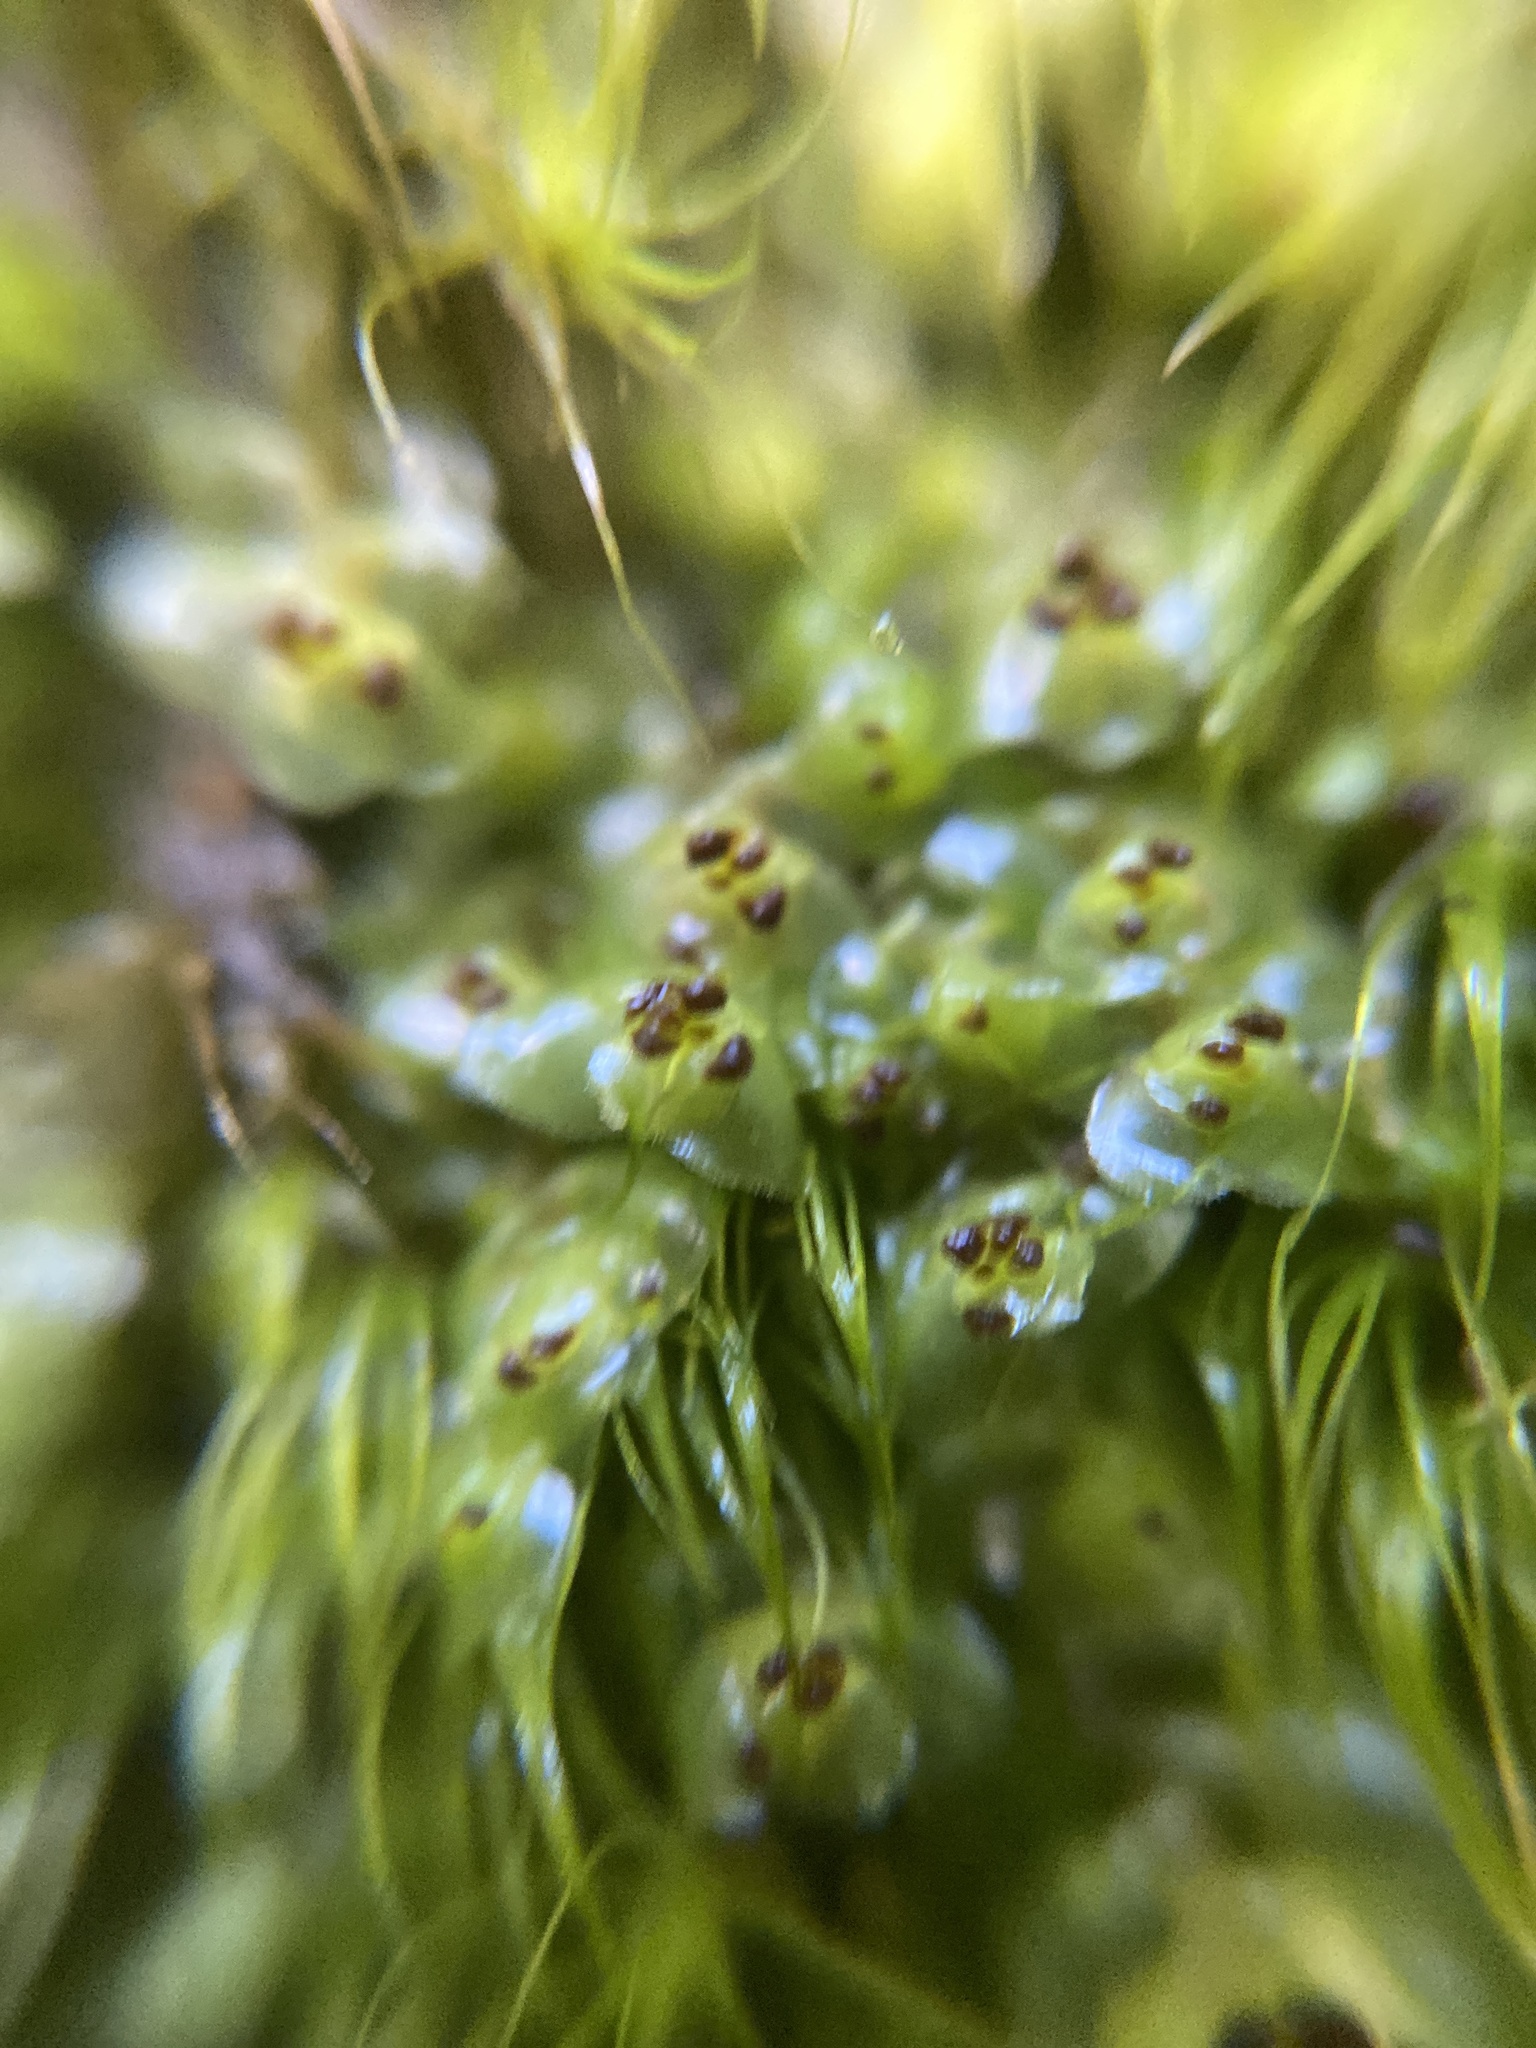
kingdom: Plantae
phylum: Marchantiophyta
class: Jungermanniopsida
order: Jungermanniales
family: Scapaniaceae
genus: Scapania
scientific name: Scapania nemorea
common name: Grove earwort
